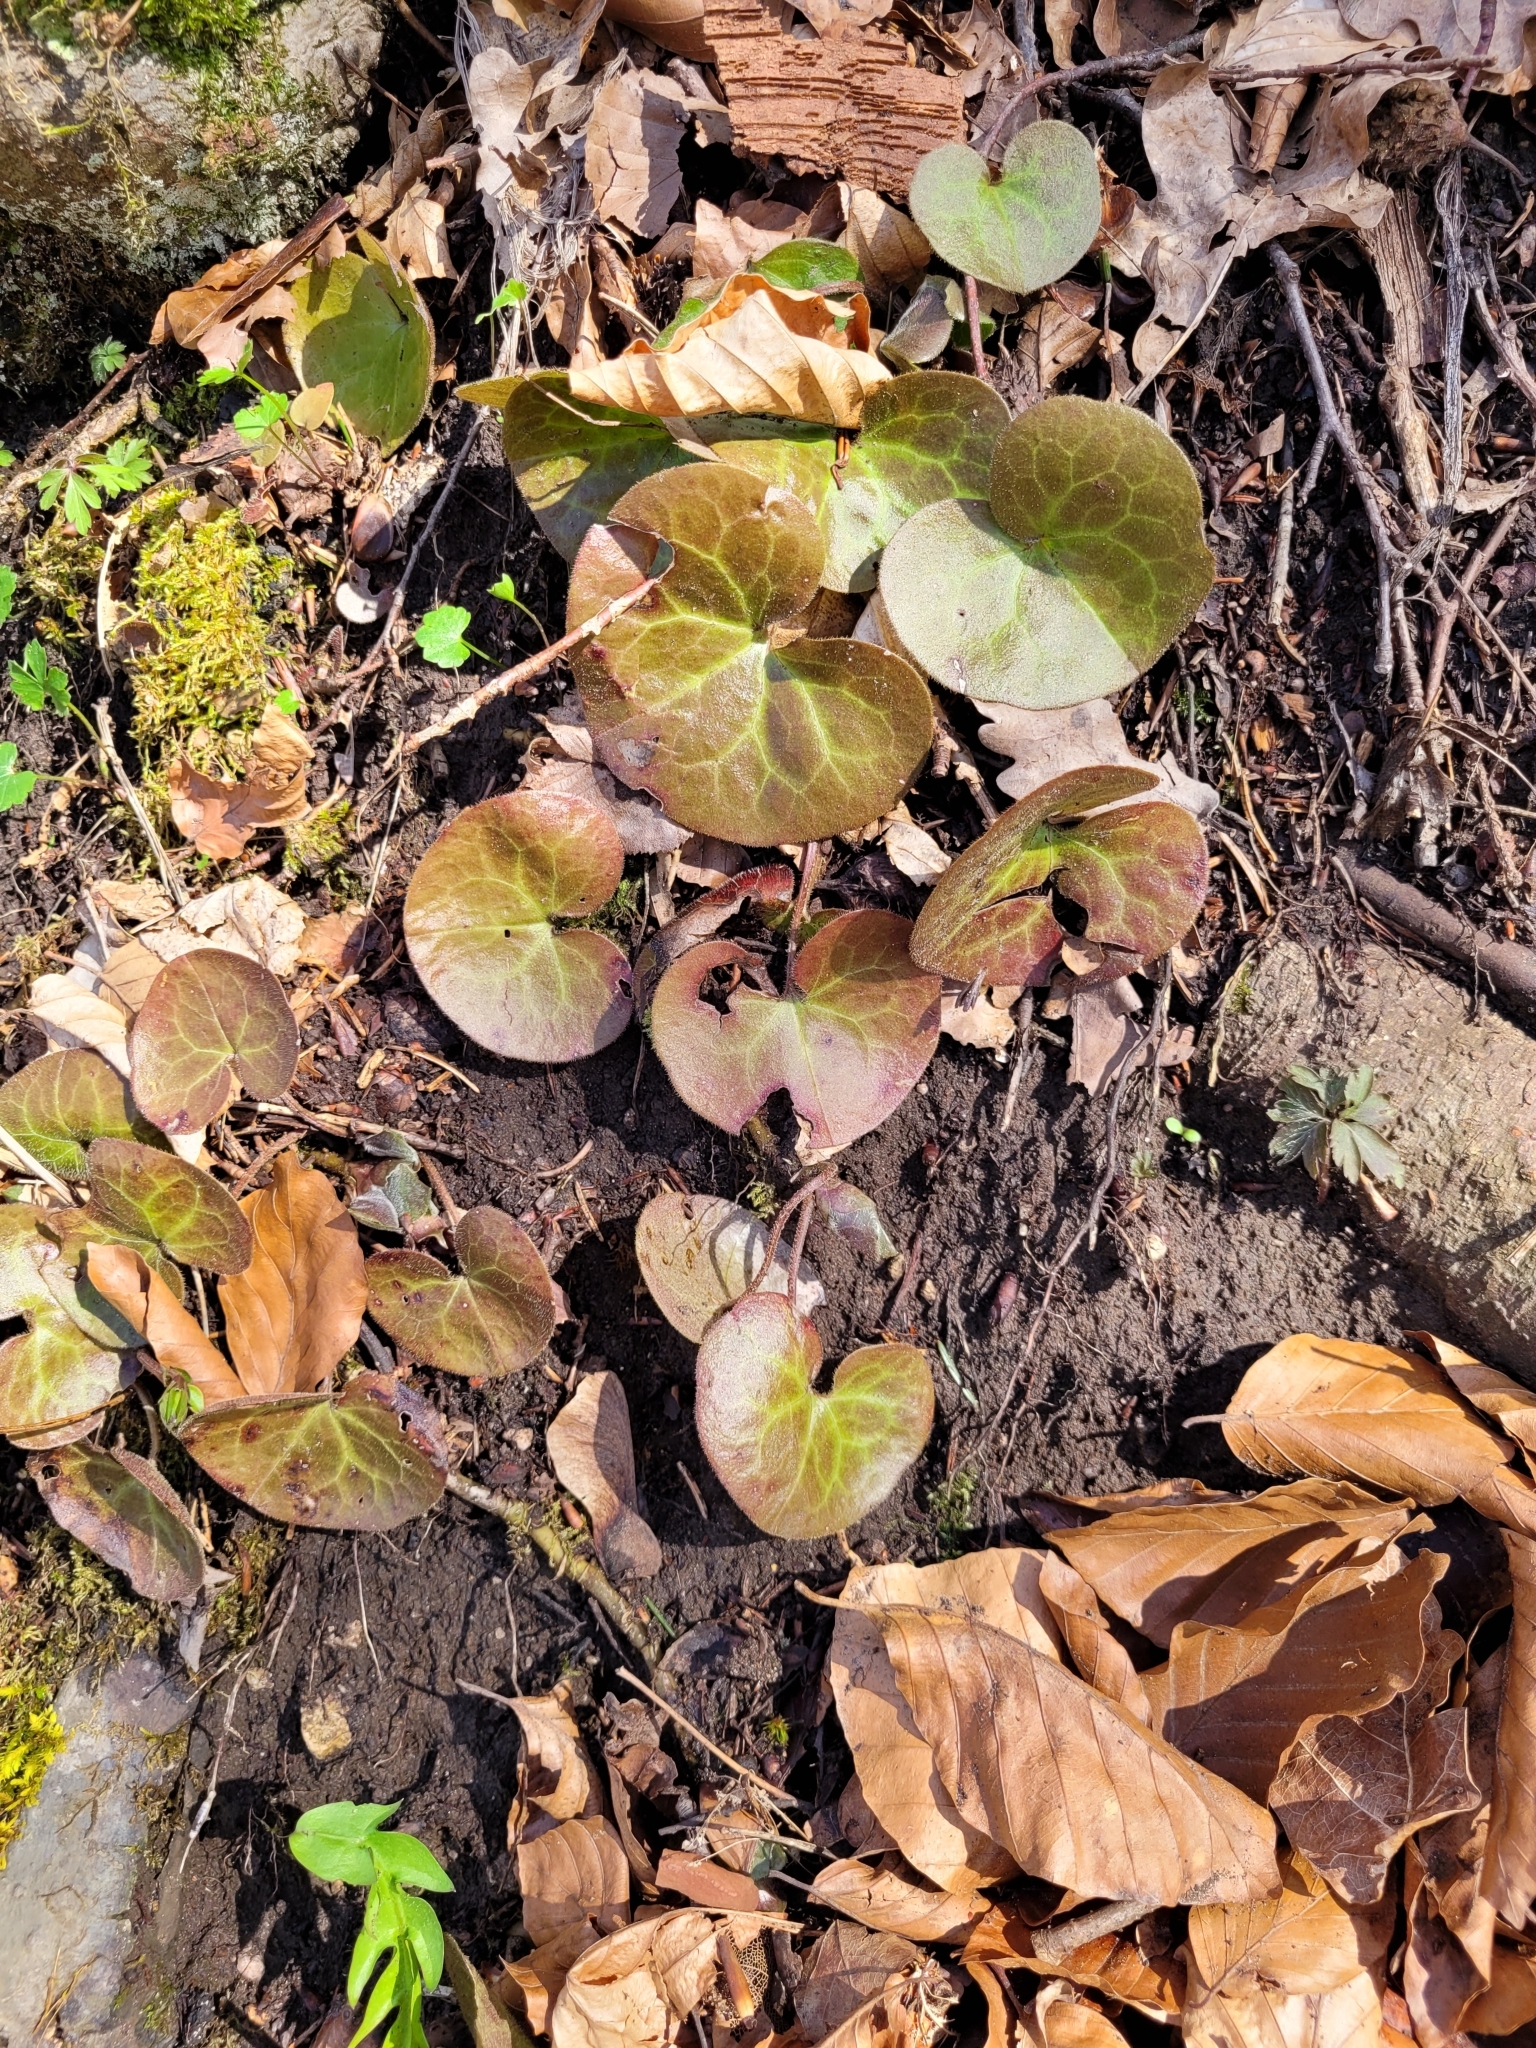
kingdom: Plantae
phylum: Tracheophyta
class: Magnoliopsida
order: Piperales
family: Aristolochiaceae
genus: Asarum
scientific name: Asarum europaeum
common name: Asarabacca
